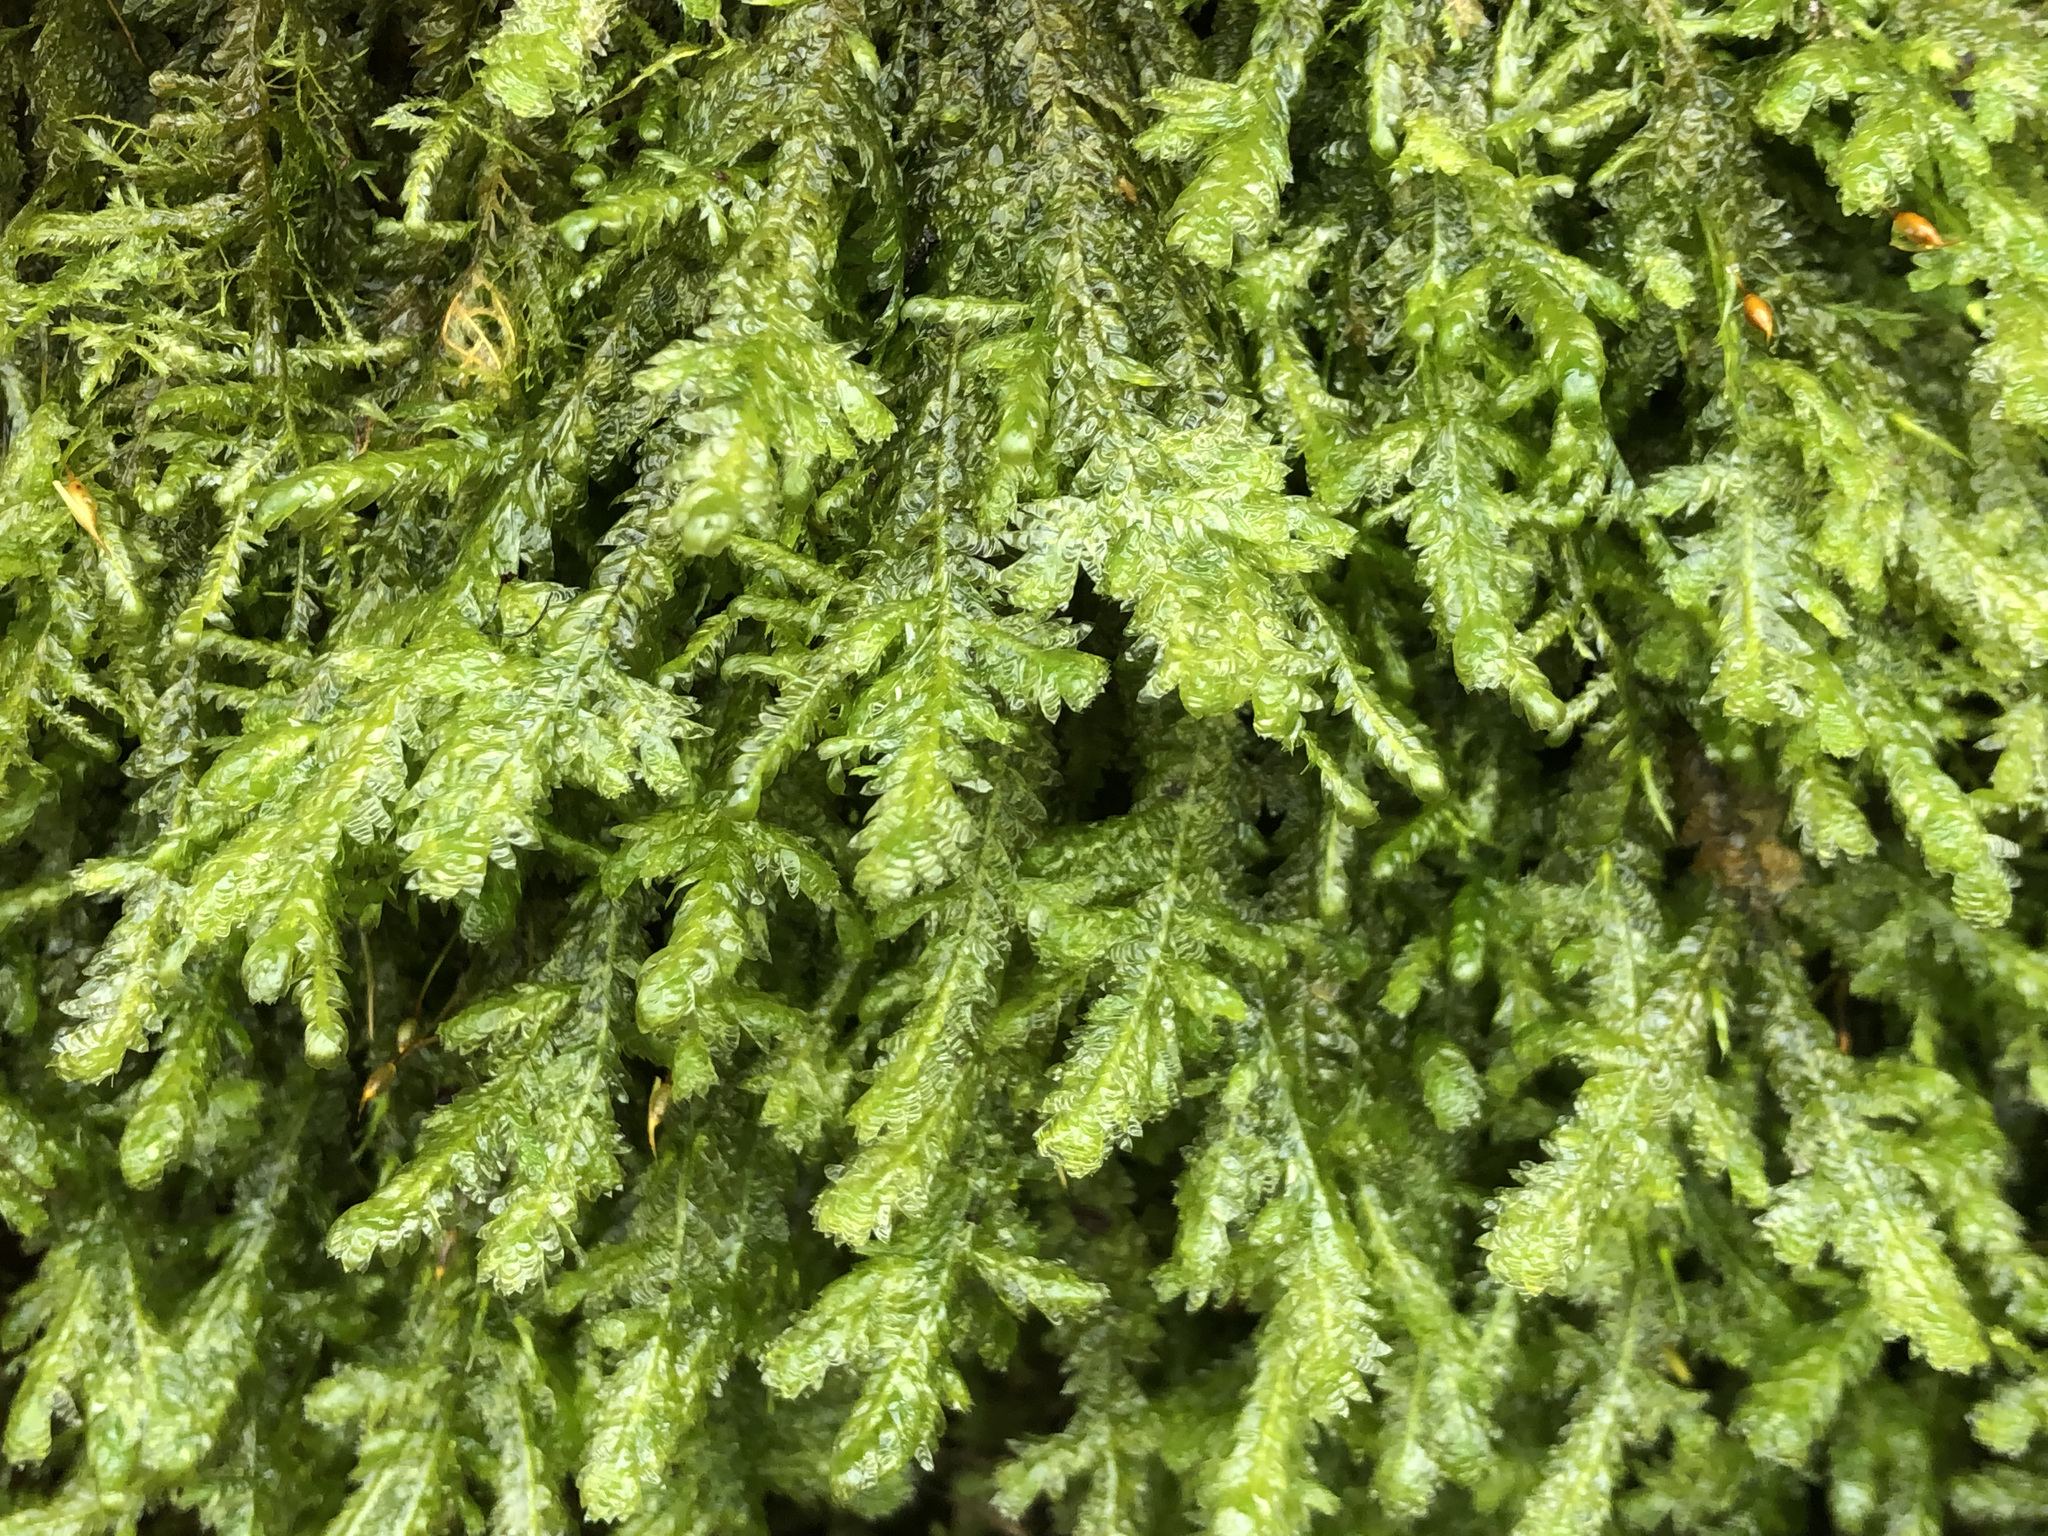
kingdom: Plantae
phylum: Bryophyta
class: Bryopsida
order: Hypnales
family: Neckeraceae
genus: Exsertotheca
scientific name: Exsertotheca crispa
